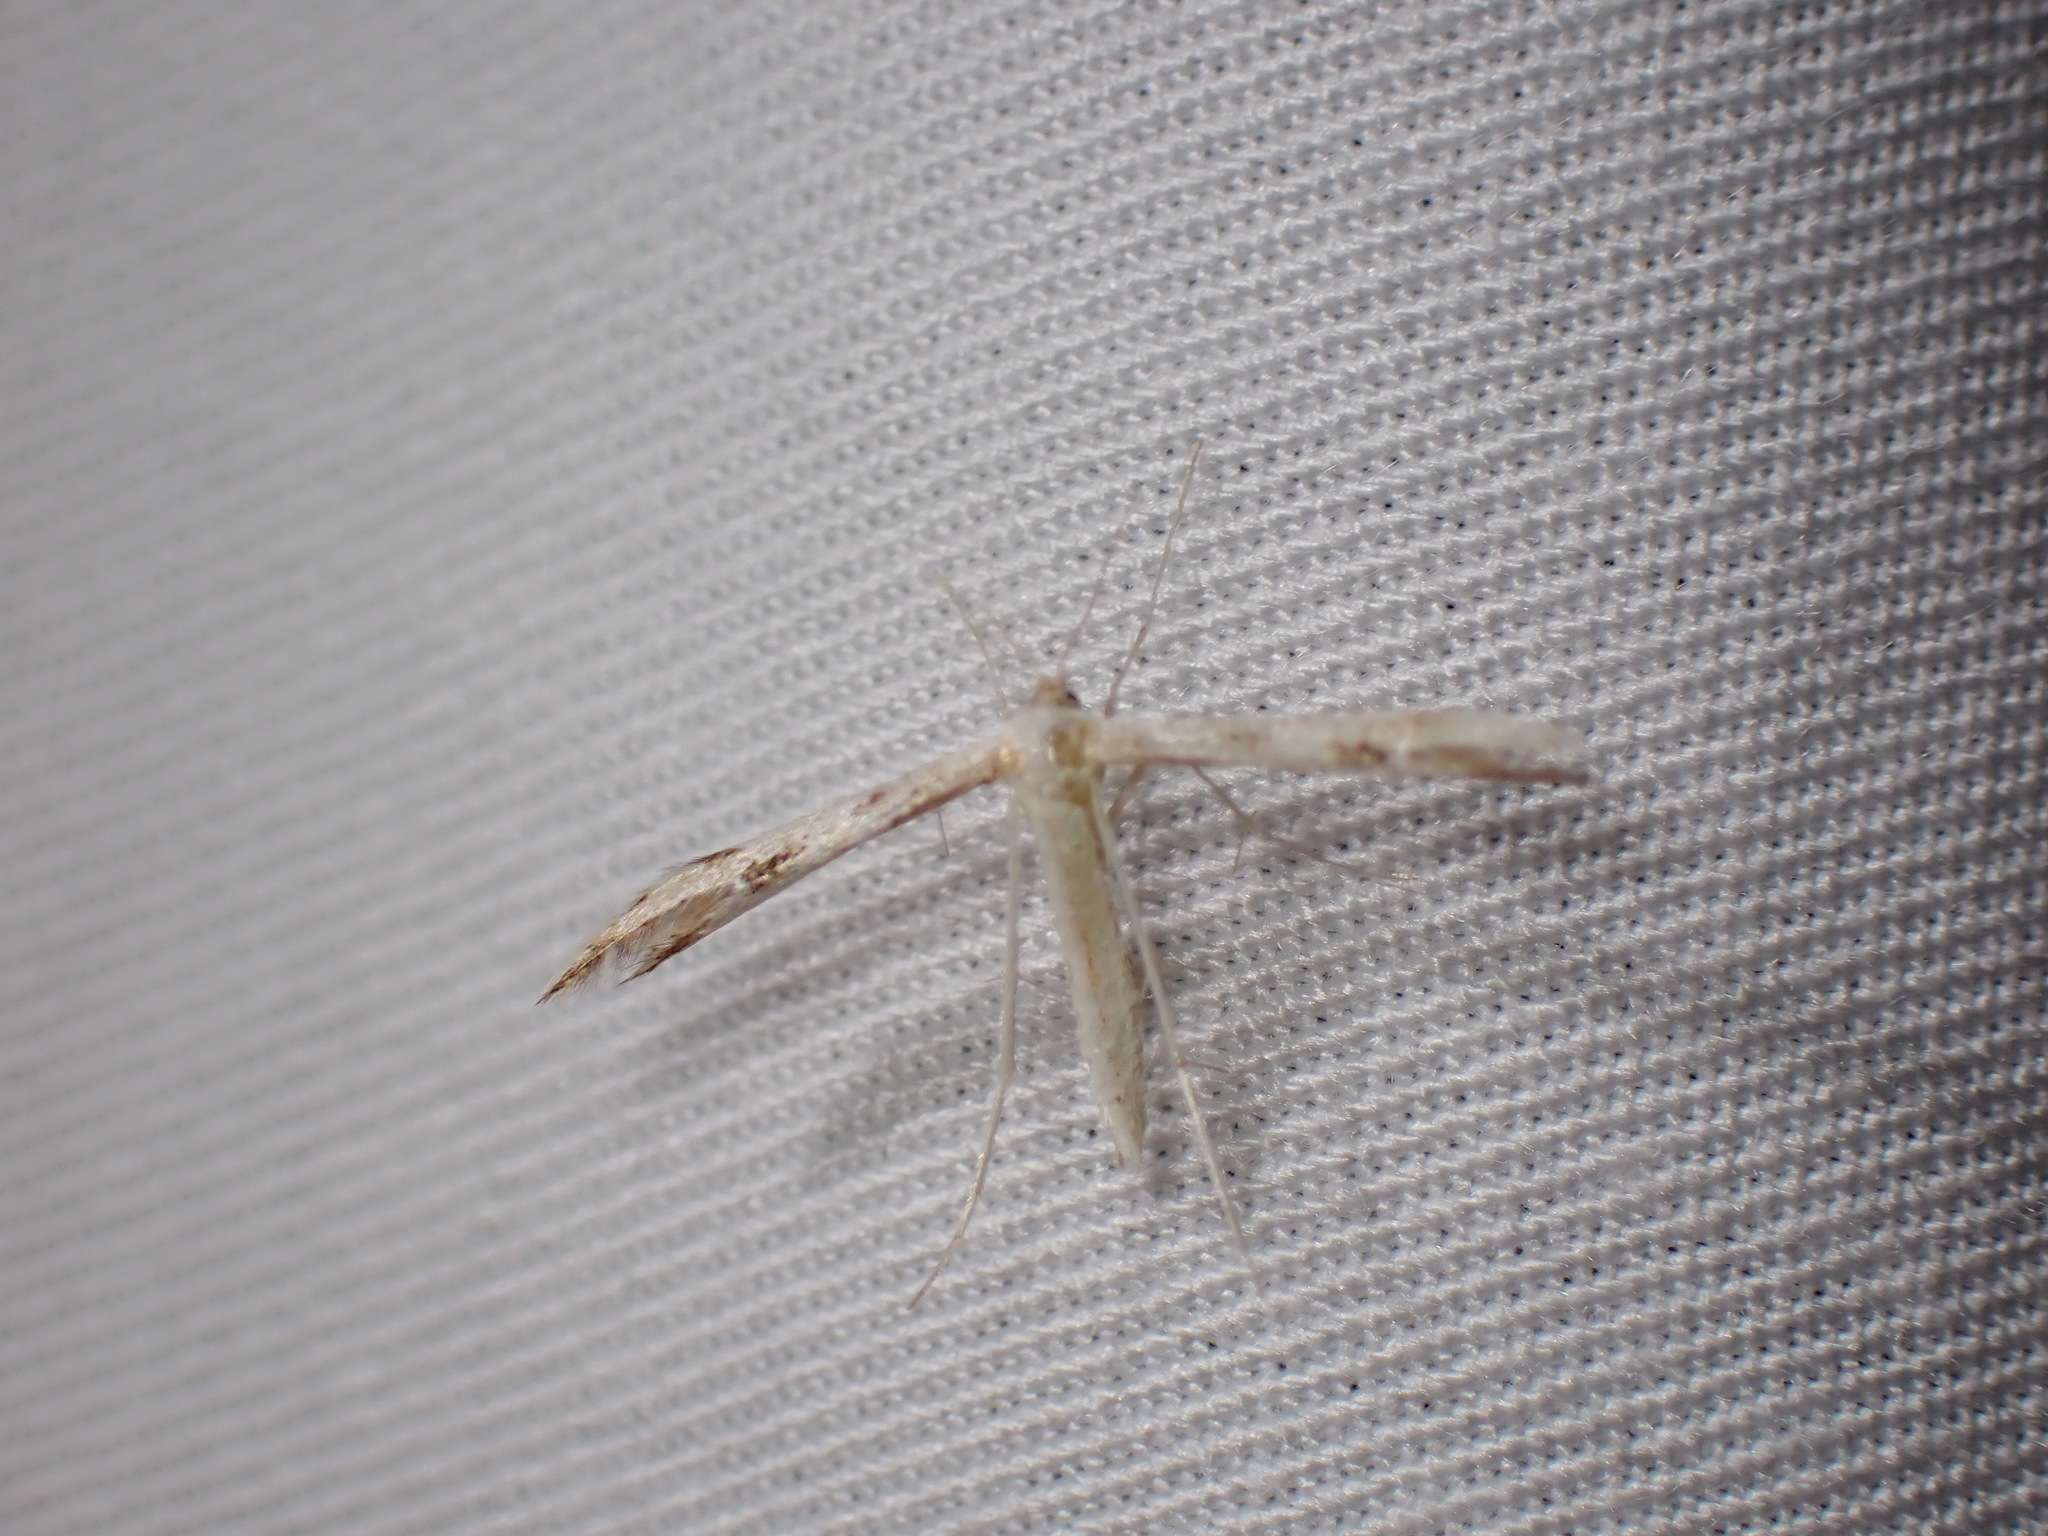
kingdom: Animalia
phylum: Arthropoda
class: Insecta
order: Lepidoptera
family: Pterophoridae
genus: Adaina
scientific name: Adaina montanus
